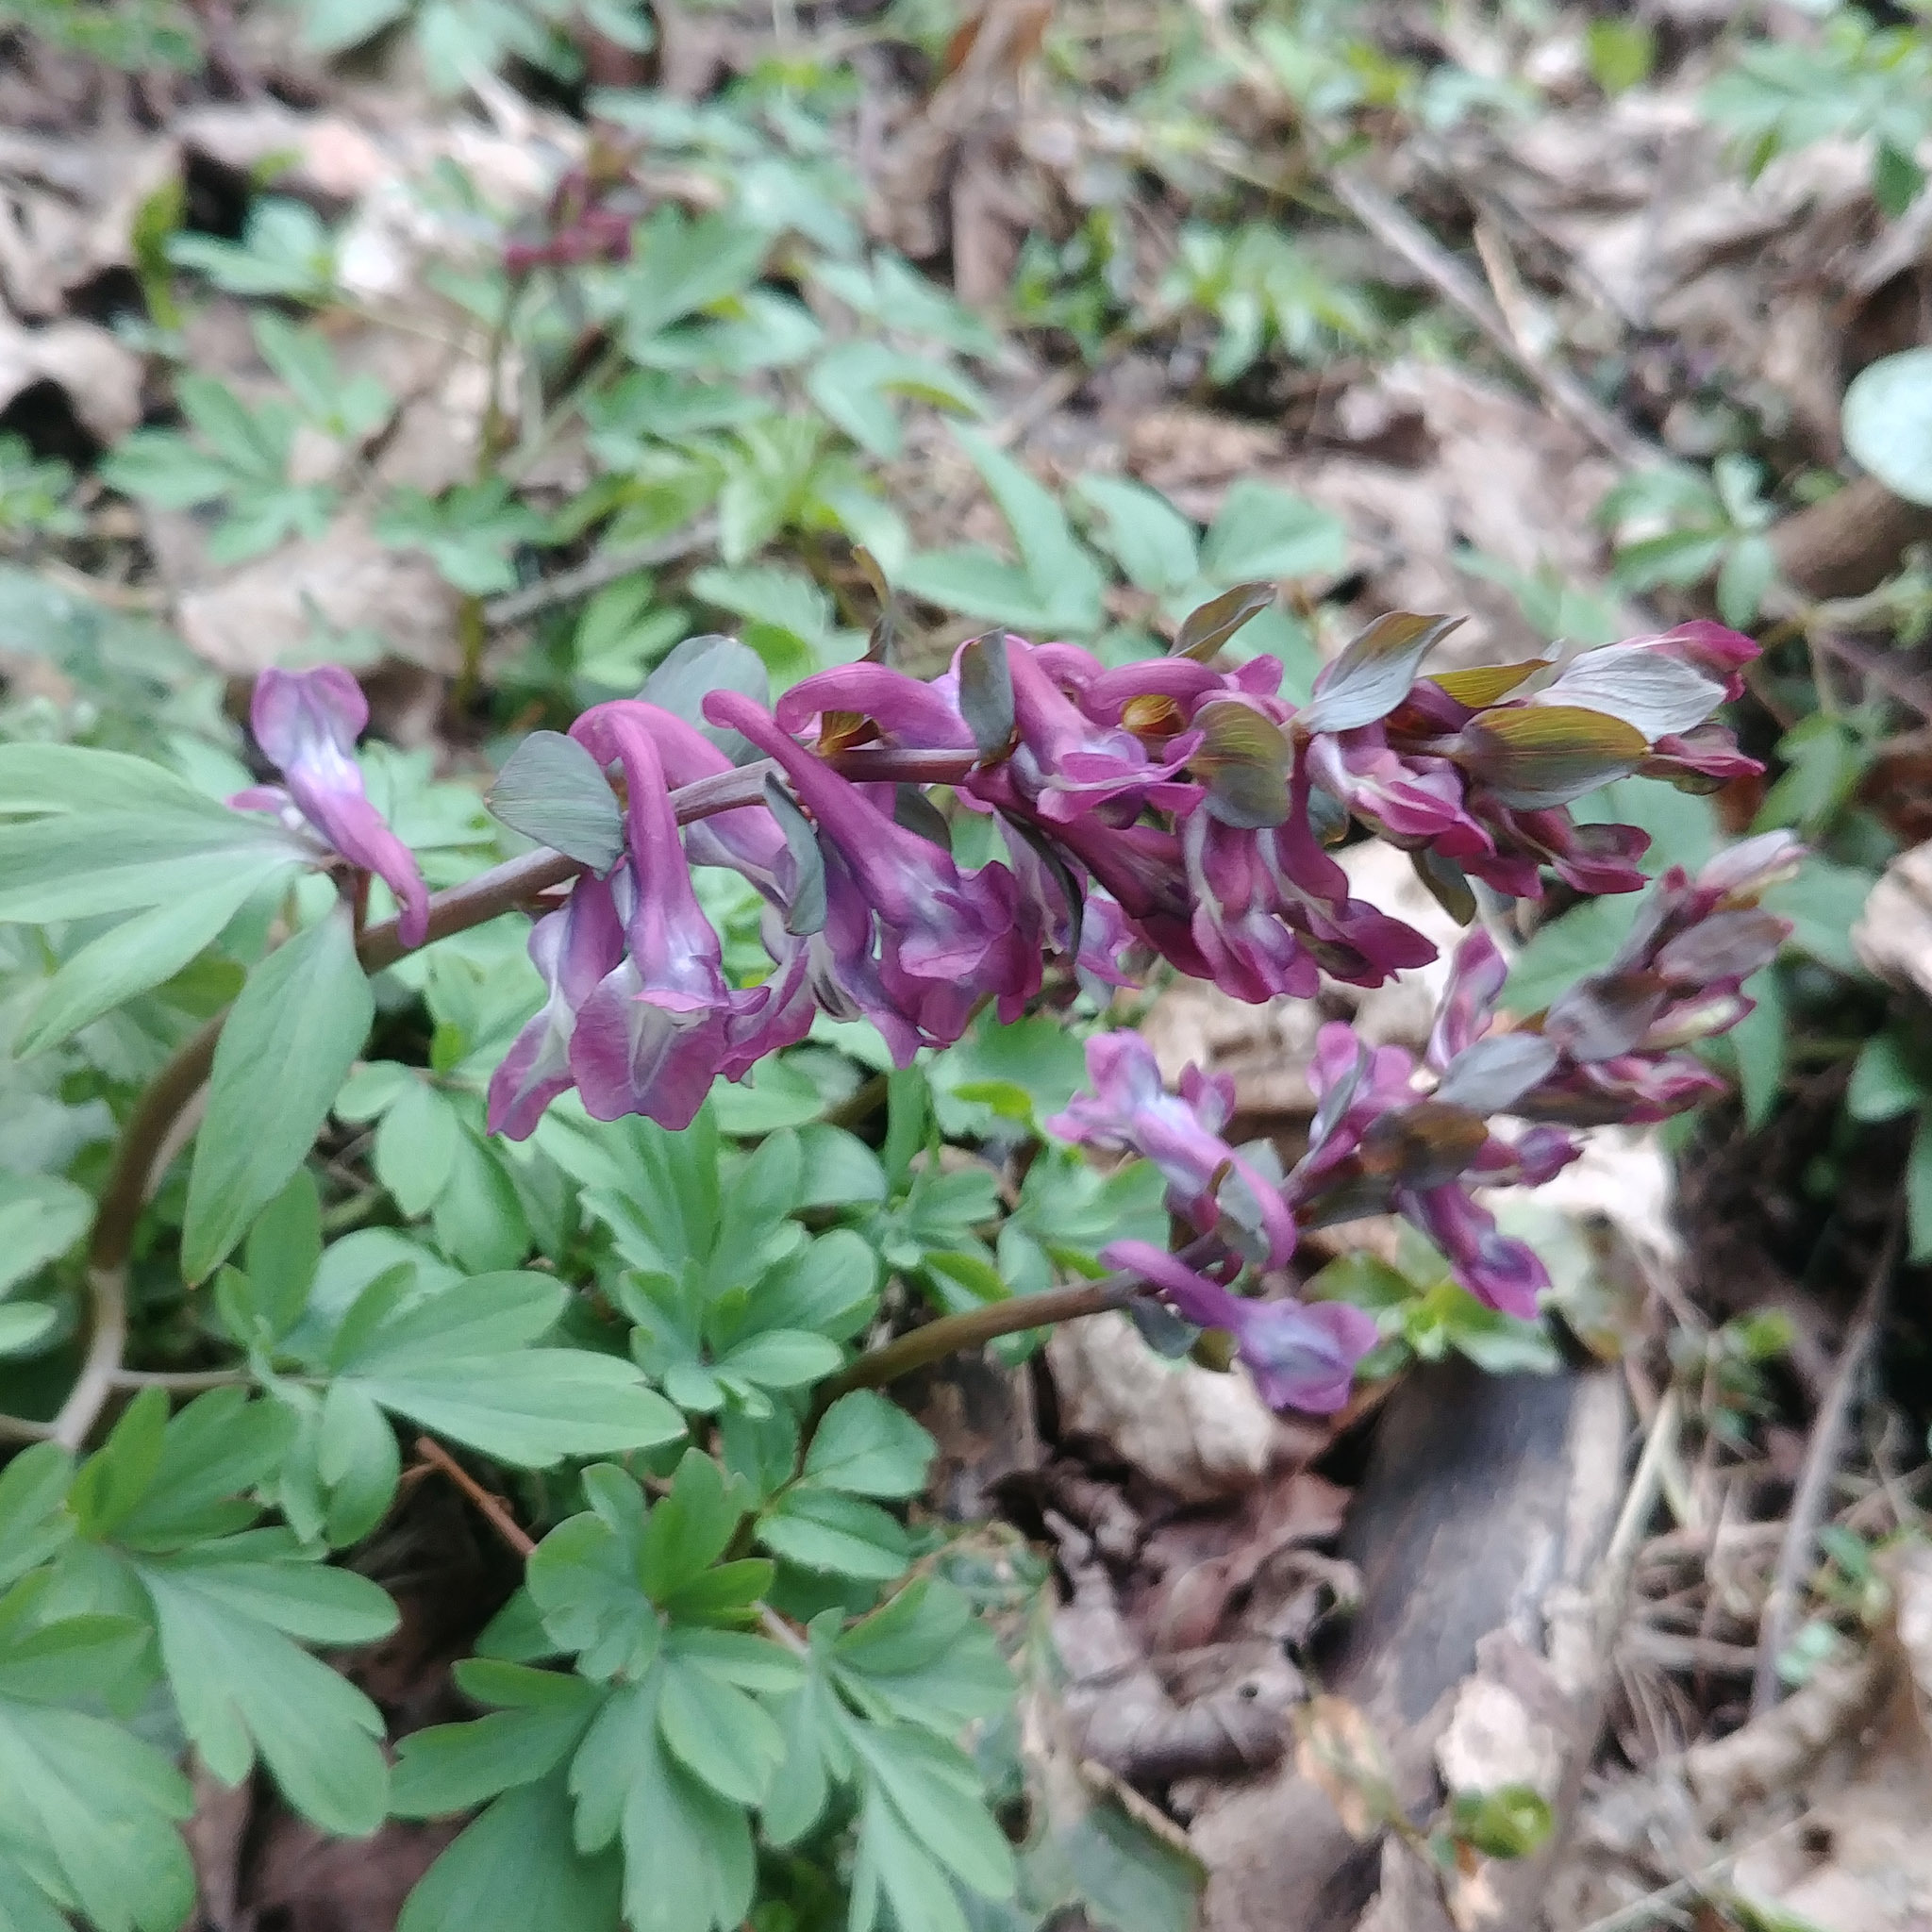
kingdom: Plantae
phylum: Tracheophyta
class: Magnoliopsida
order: Ranunculales
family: Papaveraceae
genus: Corydalis
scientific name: Corydalis cava
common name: Hollowroot
